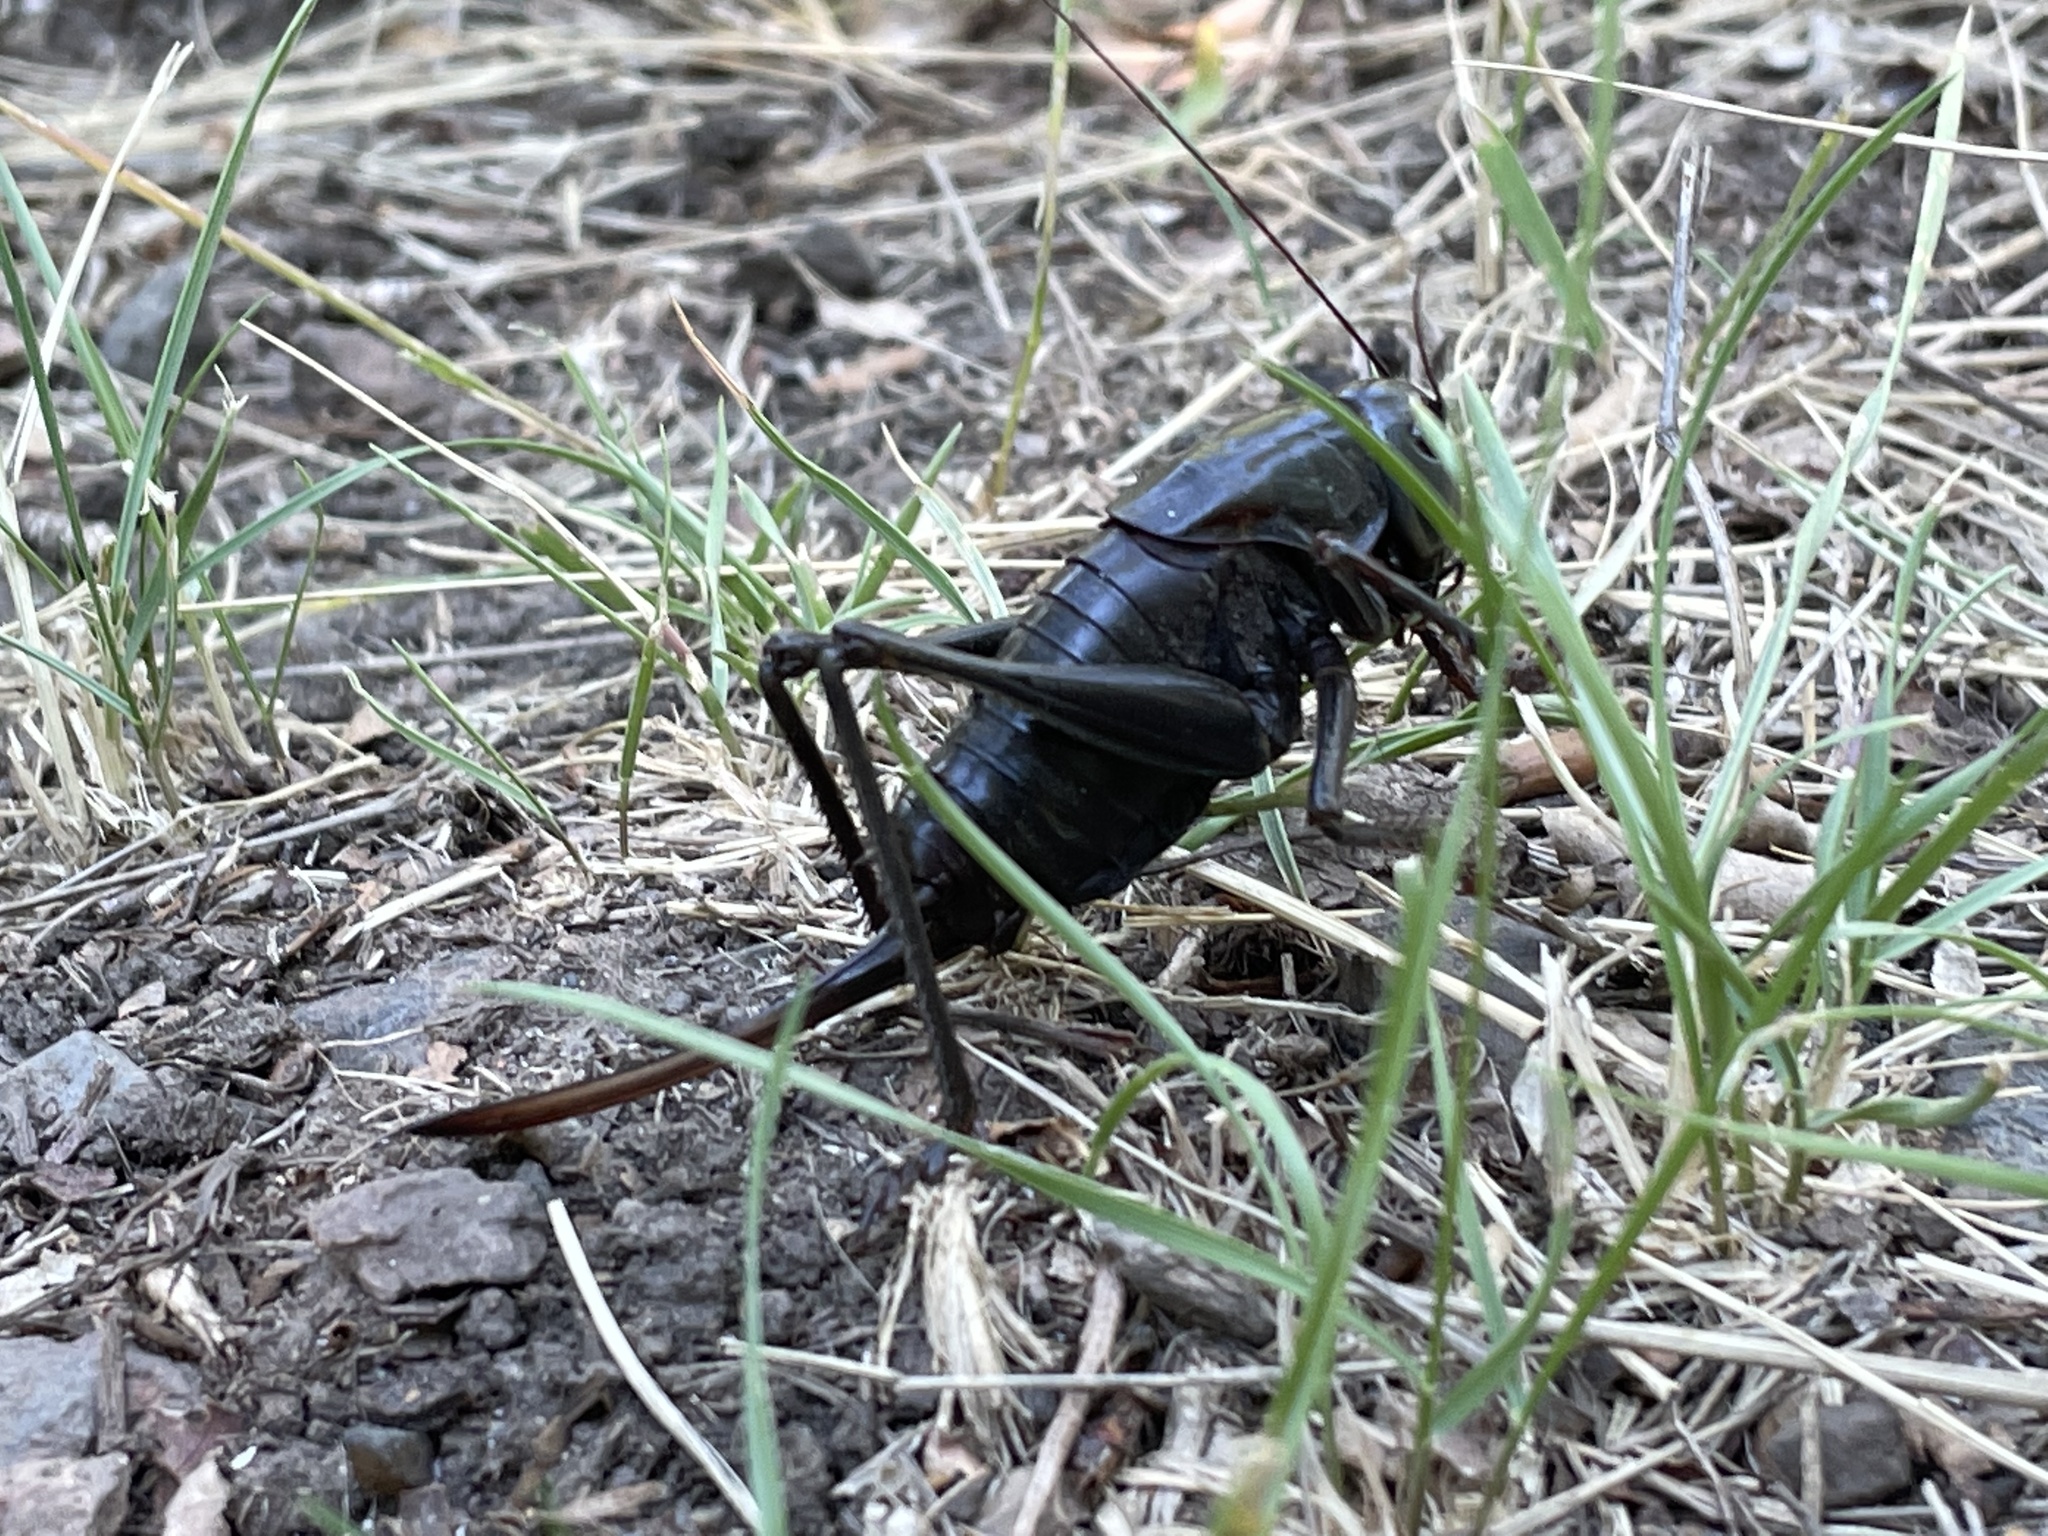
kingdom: Animalia
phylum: Arthropoda
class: Insecta
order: Orthoptera
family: Tettigoniidae
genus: Anabrus
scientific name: Anabrus simplex
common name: Mormon cricket
